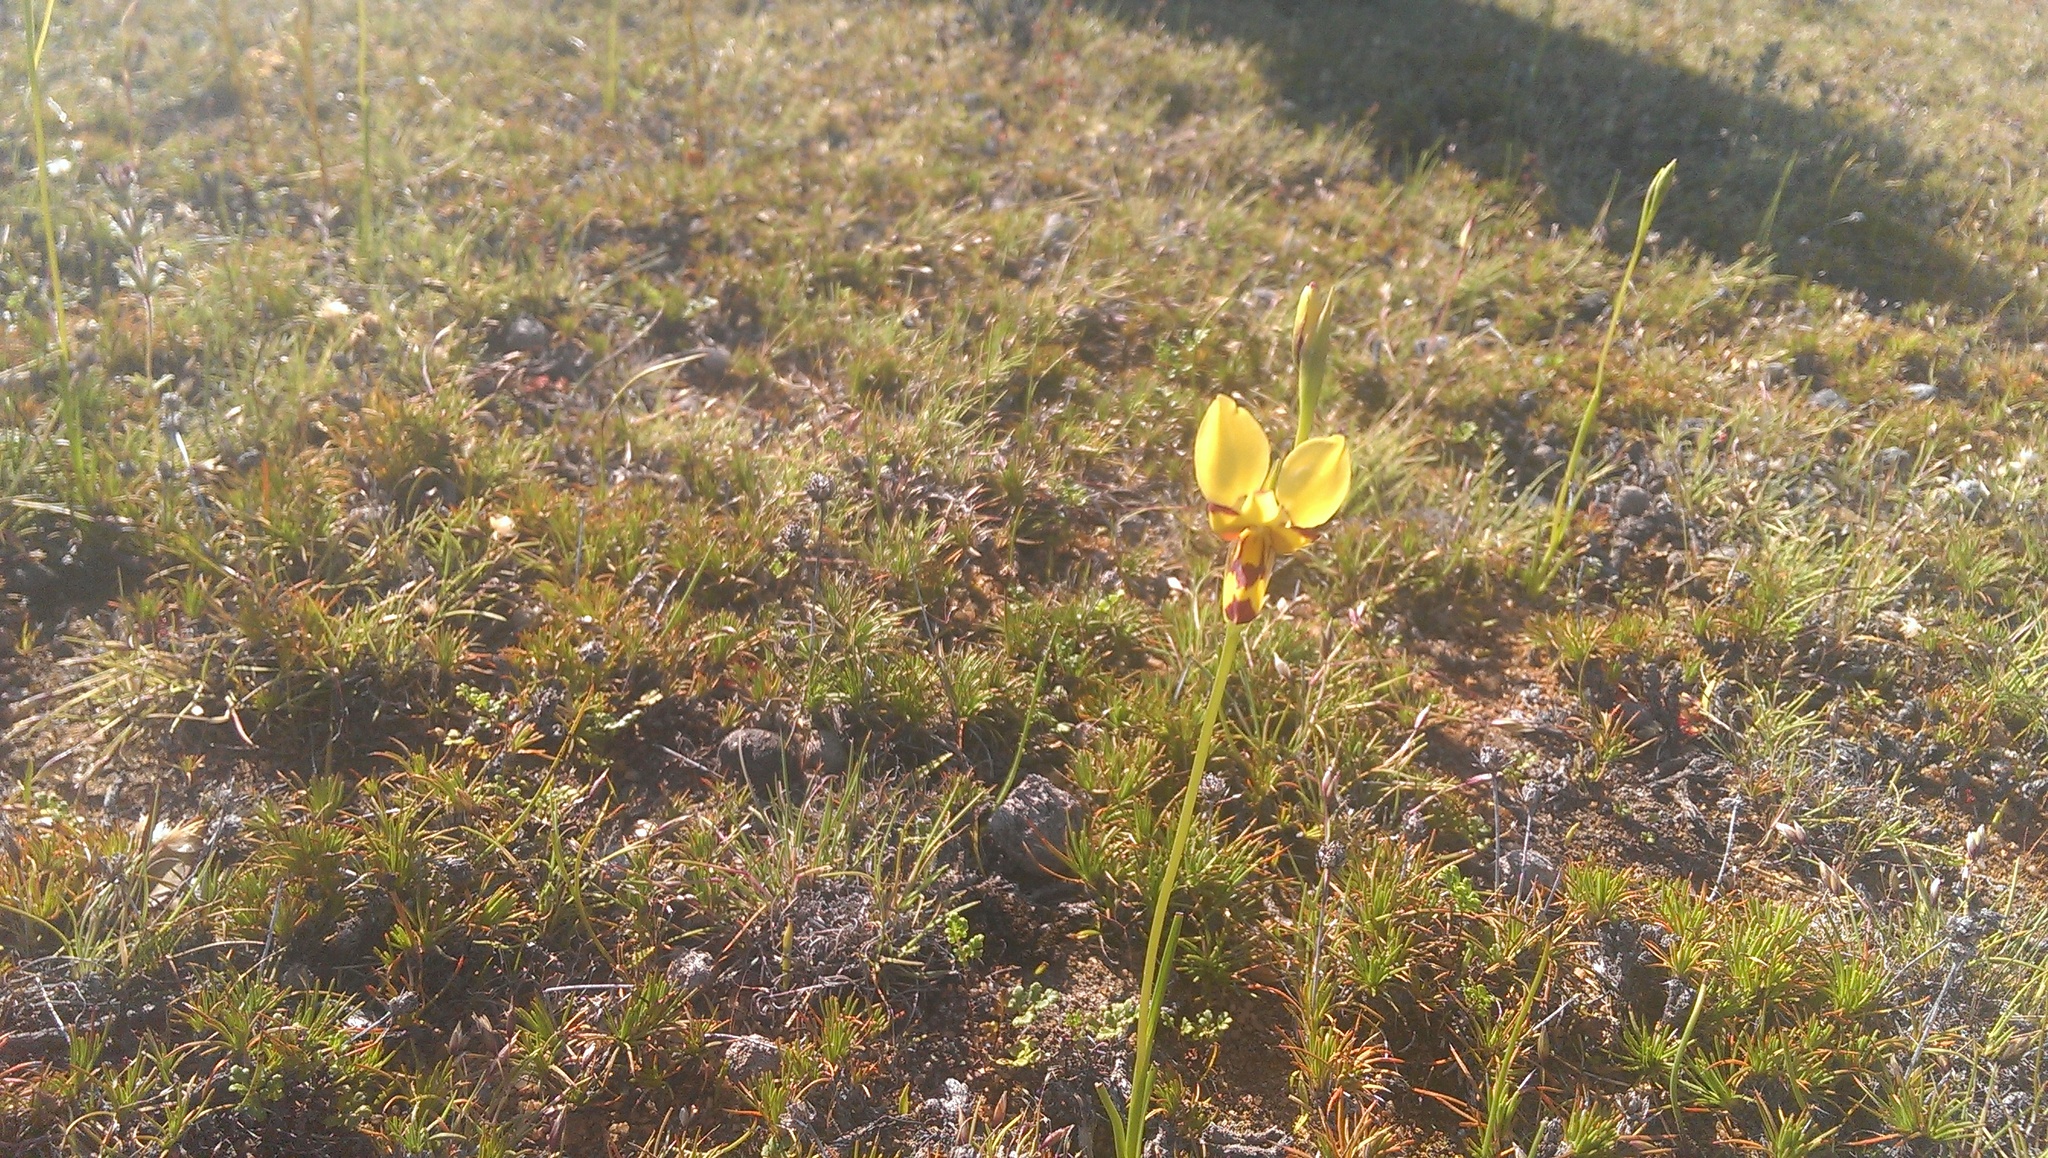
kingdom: Plantae
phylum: Tracheophyta
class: Liliopsida
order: Asparagales
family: Orchidaceae
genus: Diuris
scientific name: Diuris picta
